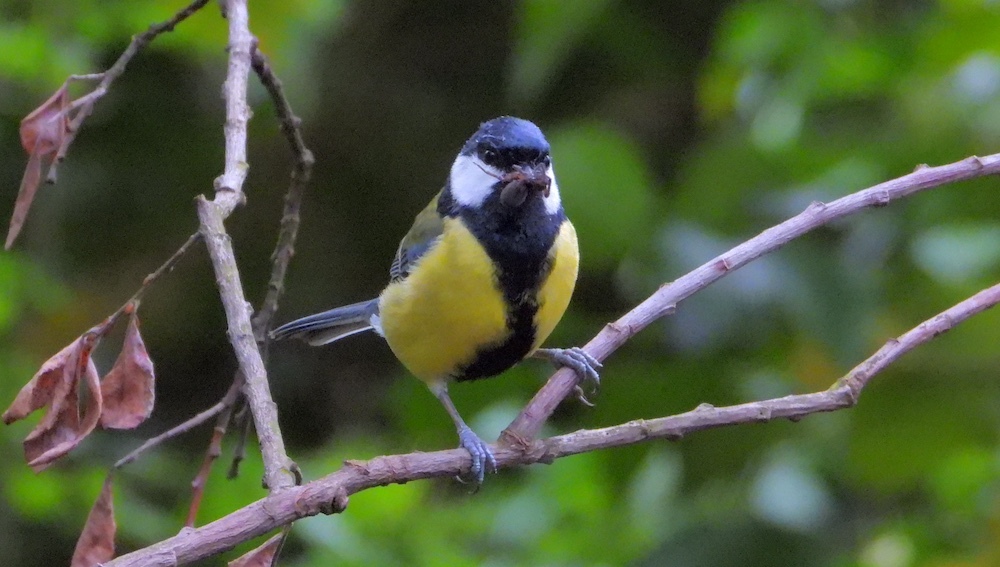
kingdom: Animalia
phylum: Chordata
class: Aves
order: Passeriformes
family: Paridae
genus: Parus
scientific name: Parus major
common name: Great tit
